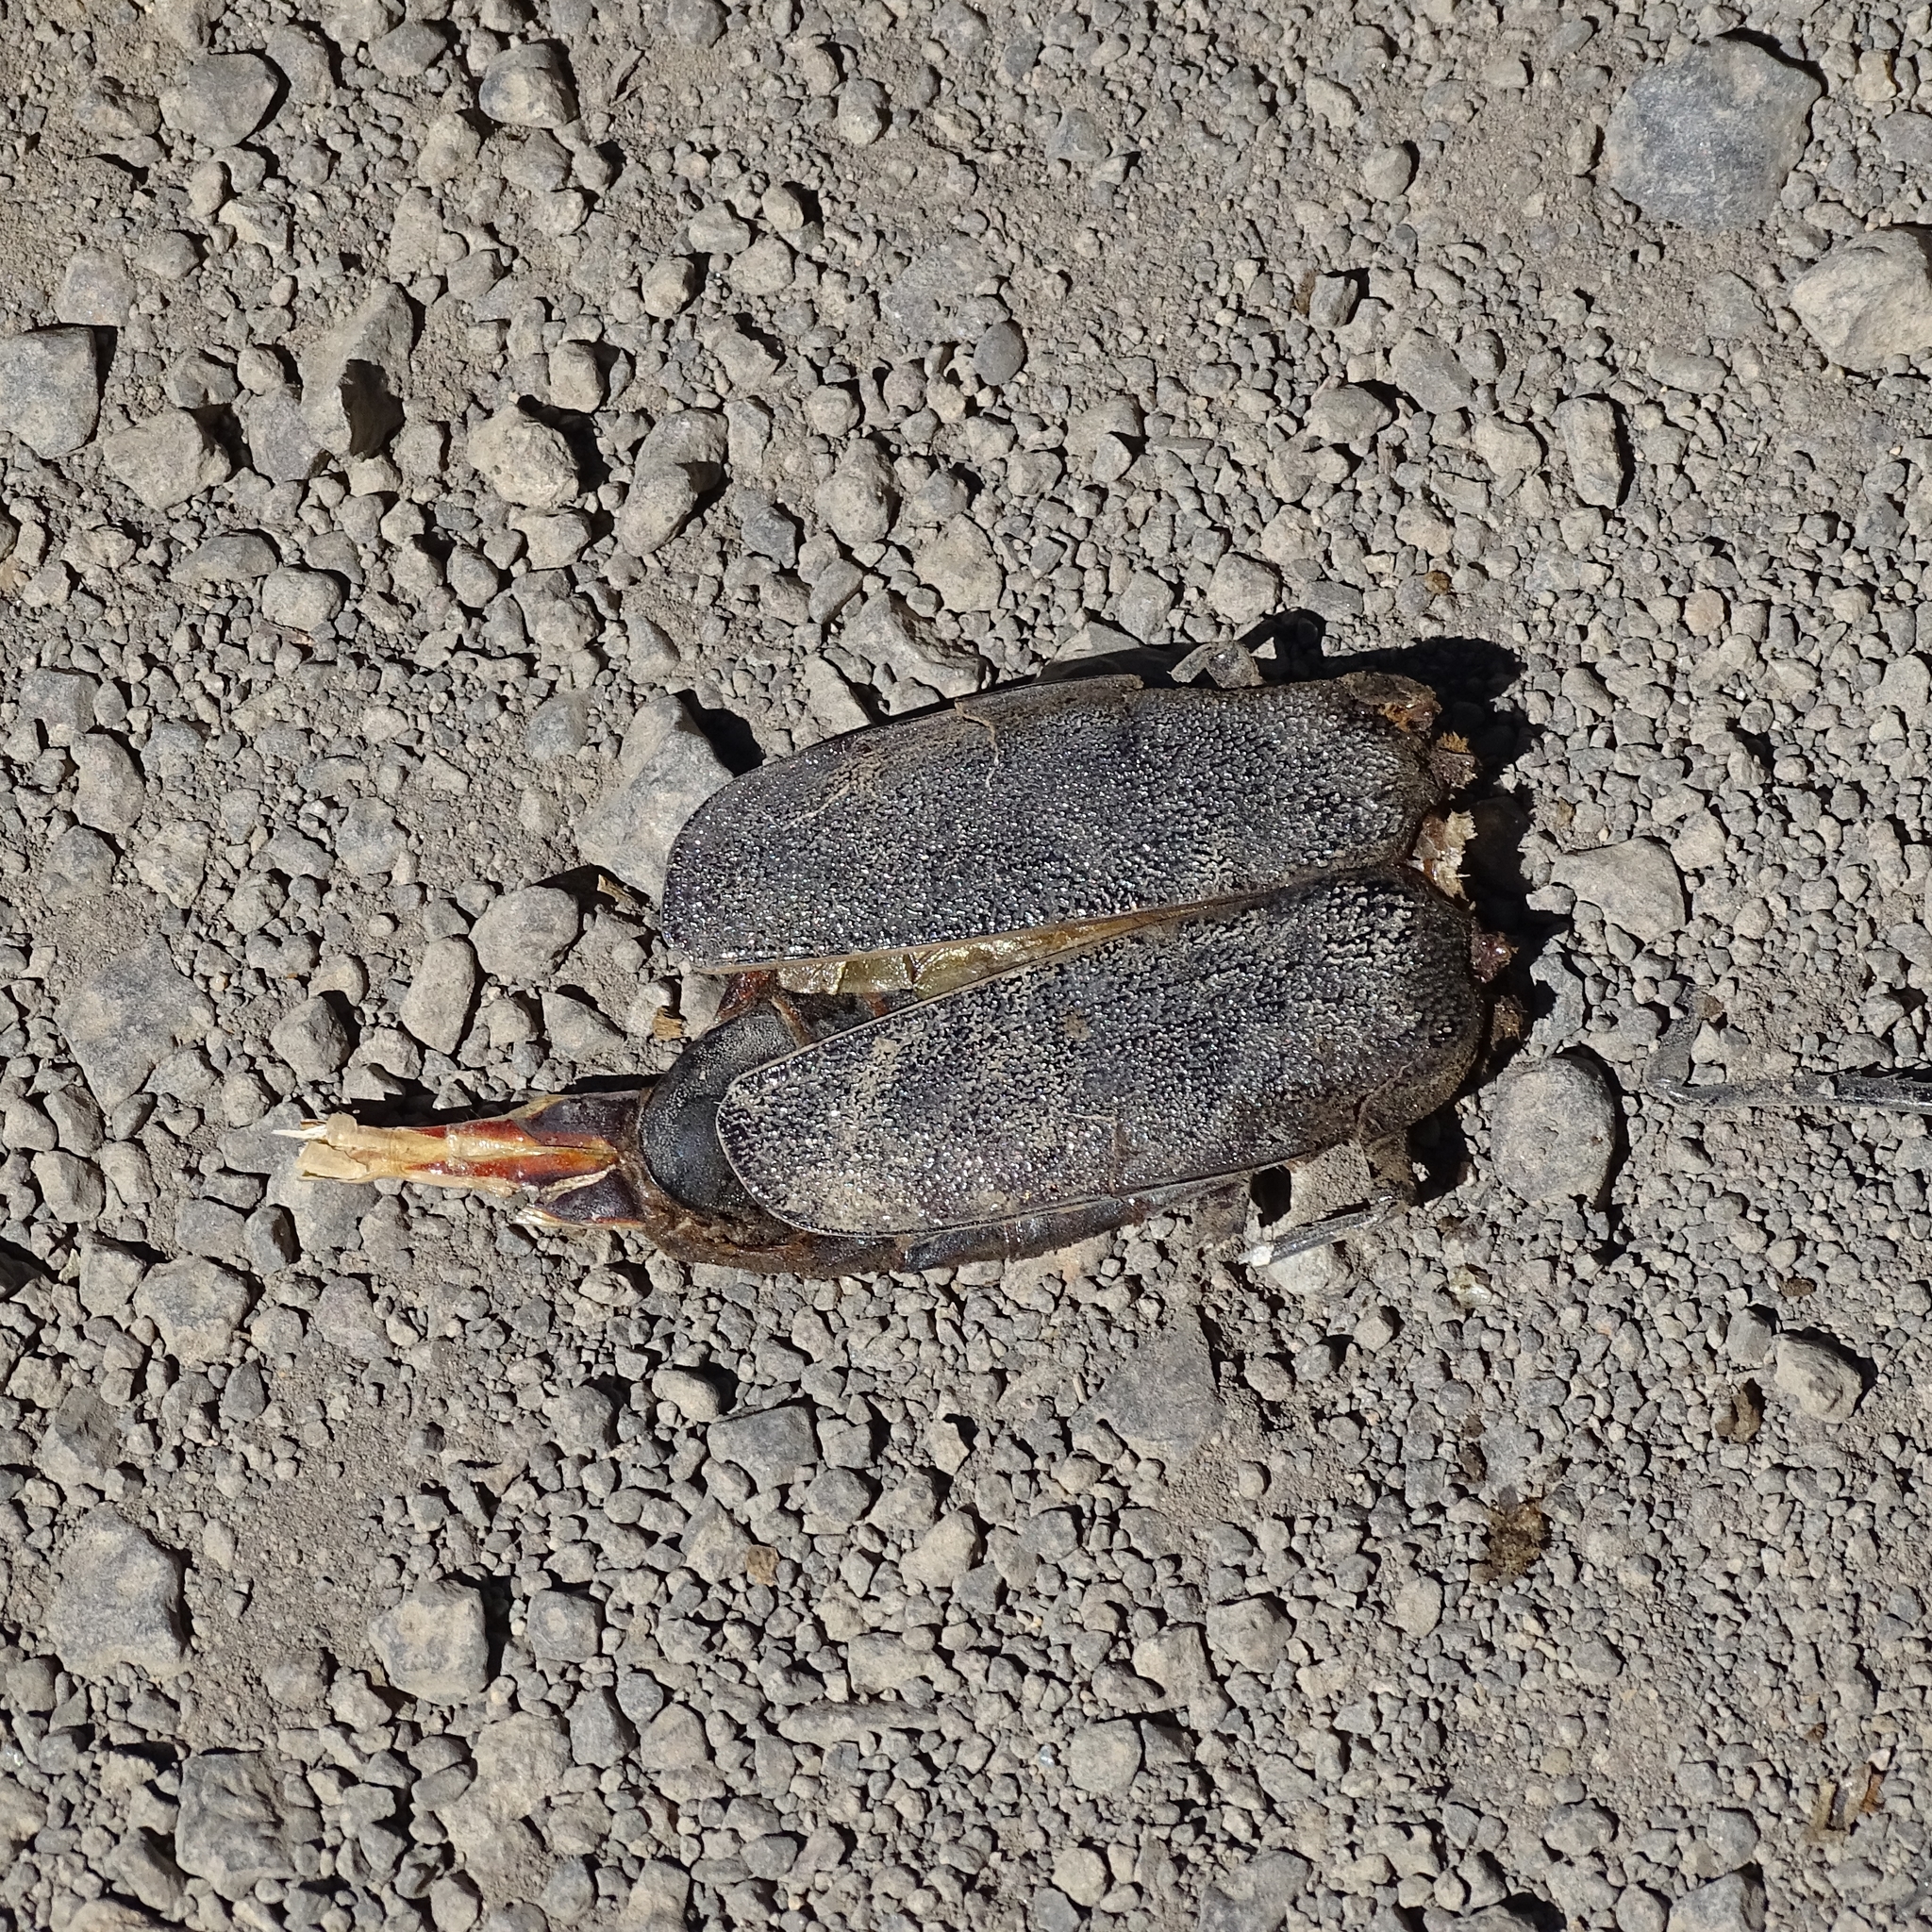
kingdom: Animalia
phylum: Arthropoda
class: Insecta
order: Coleoptera
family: Cerambycidae
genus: Acanthinodera
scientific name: Acanthinodera cumingii
